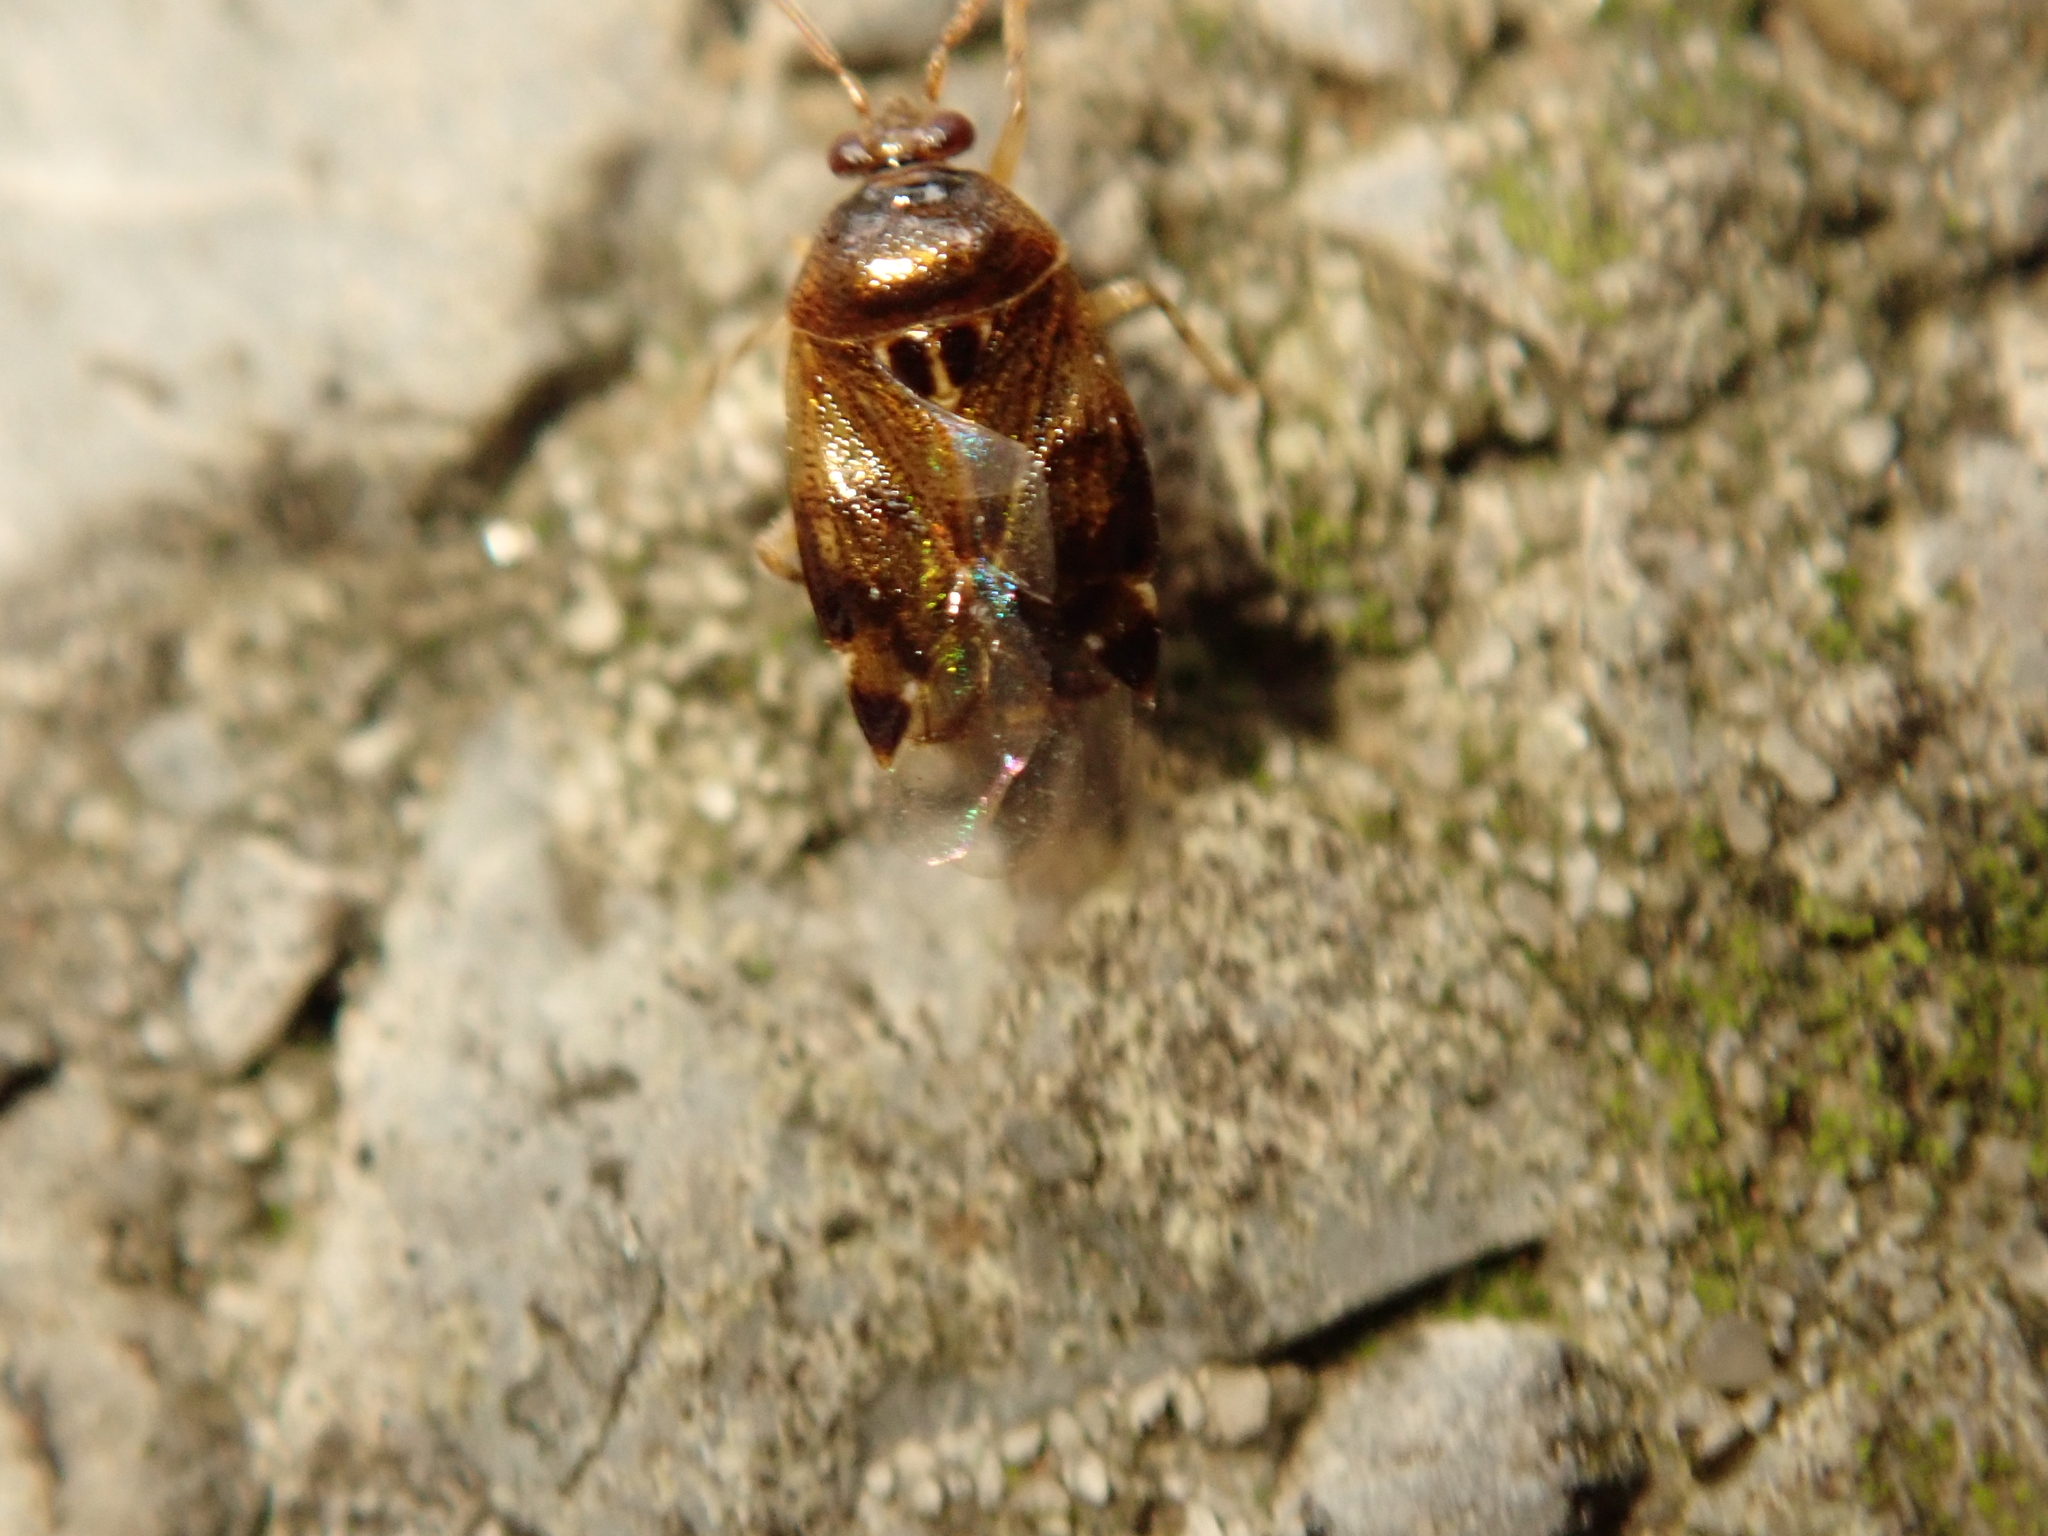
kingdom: Animalia
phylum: Arthropoda
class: Insecta
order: Hemiptera
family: Miridae
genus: Deraeocoris
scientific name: Deraeocoris lutescens
